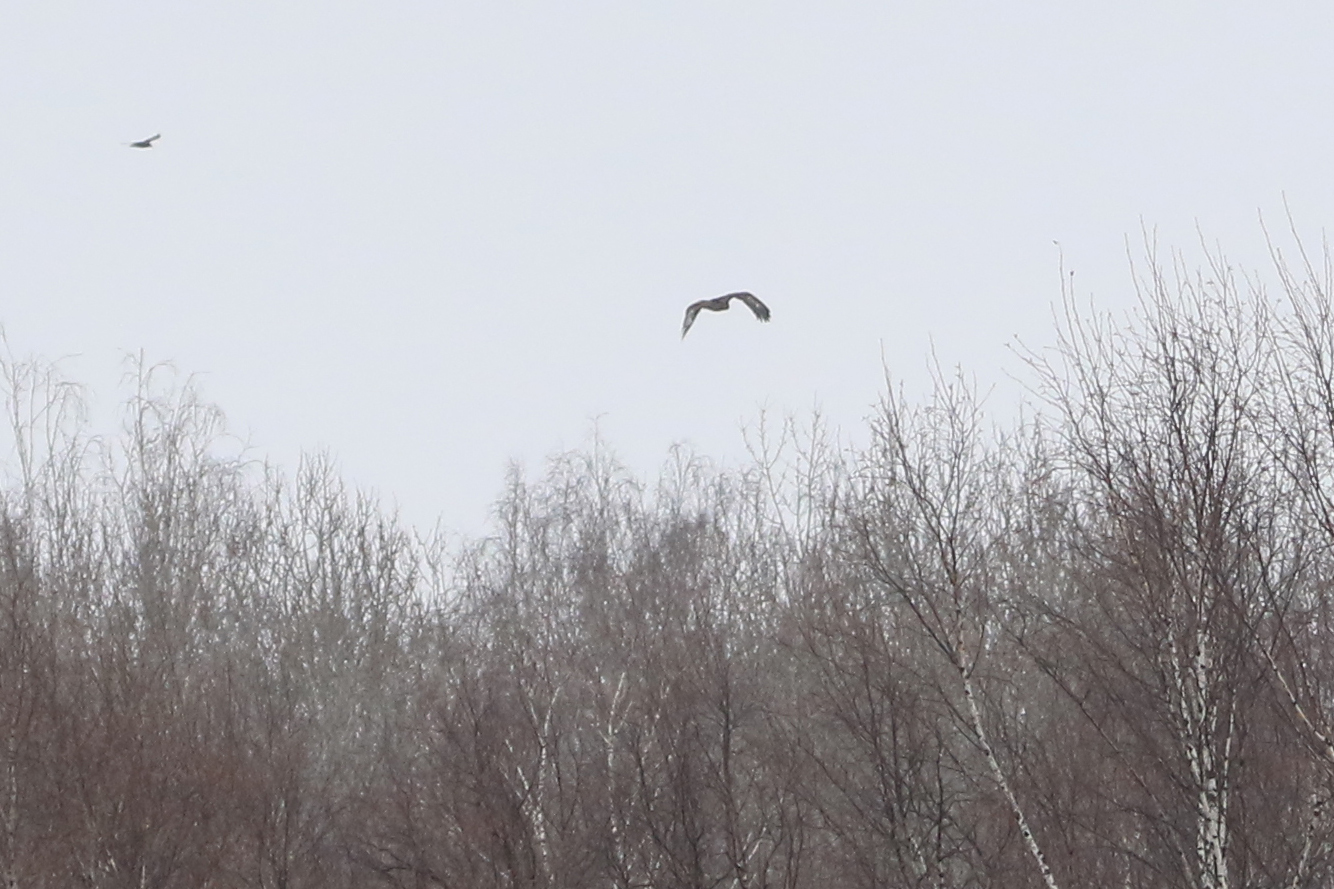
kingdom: Animalia
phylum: Chordata
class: Aves
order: Accipitriformes
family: Accipitridae
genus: Aquila
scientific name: Aquila chrysaetos
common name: Golden eagle
